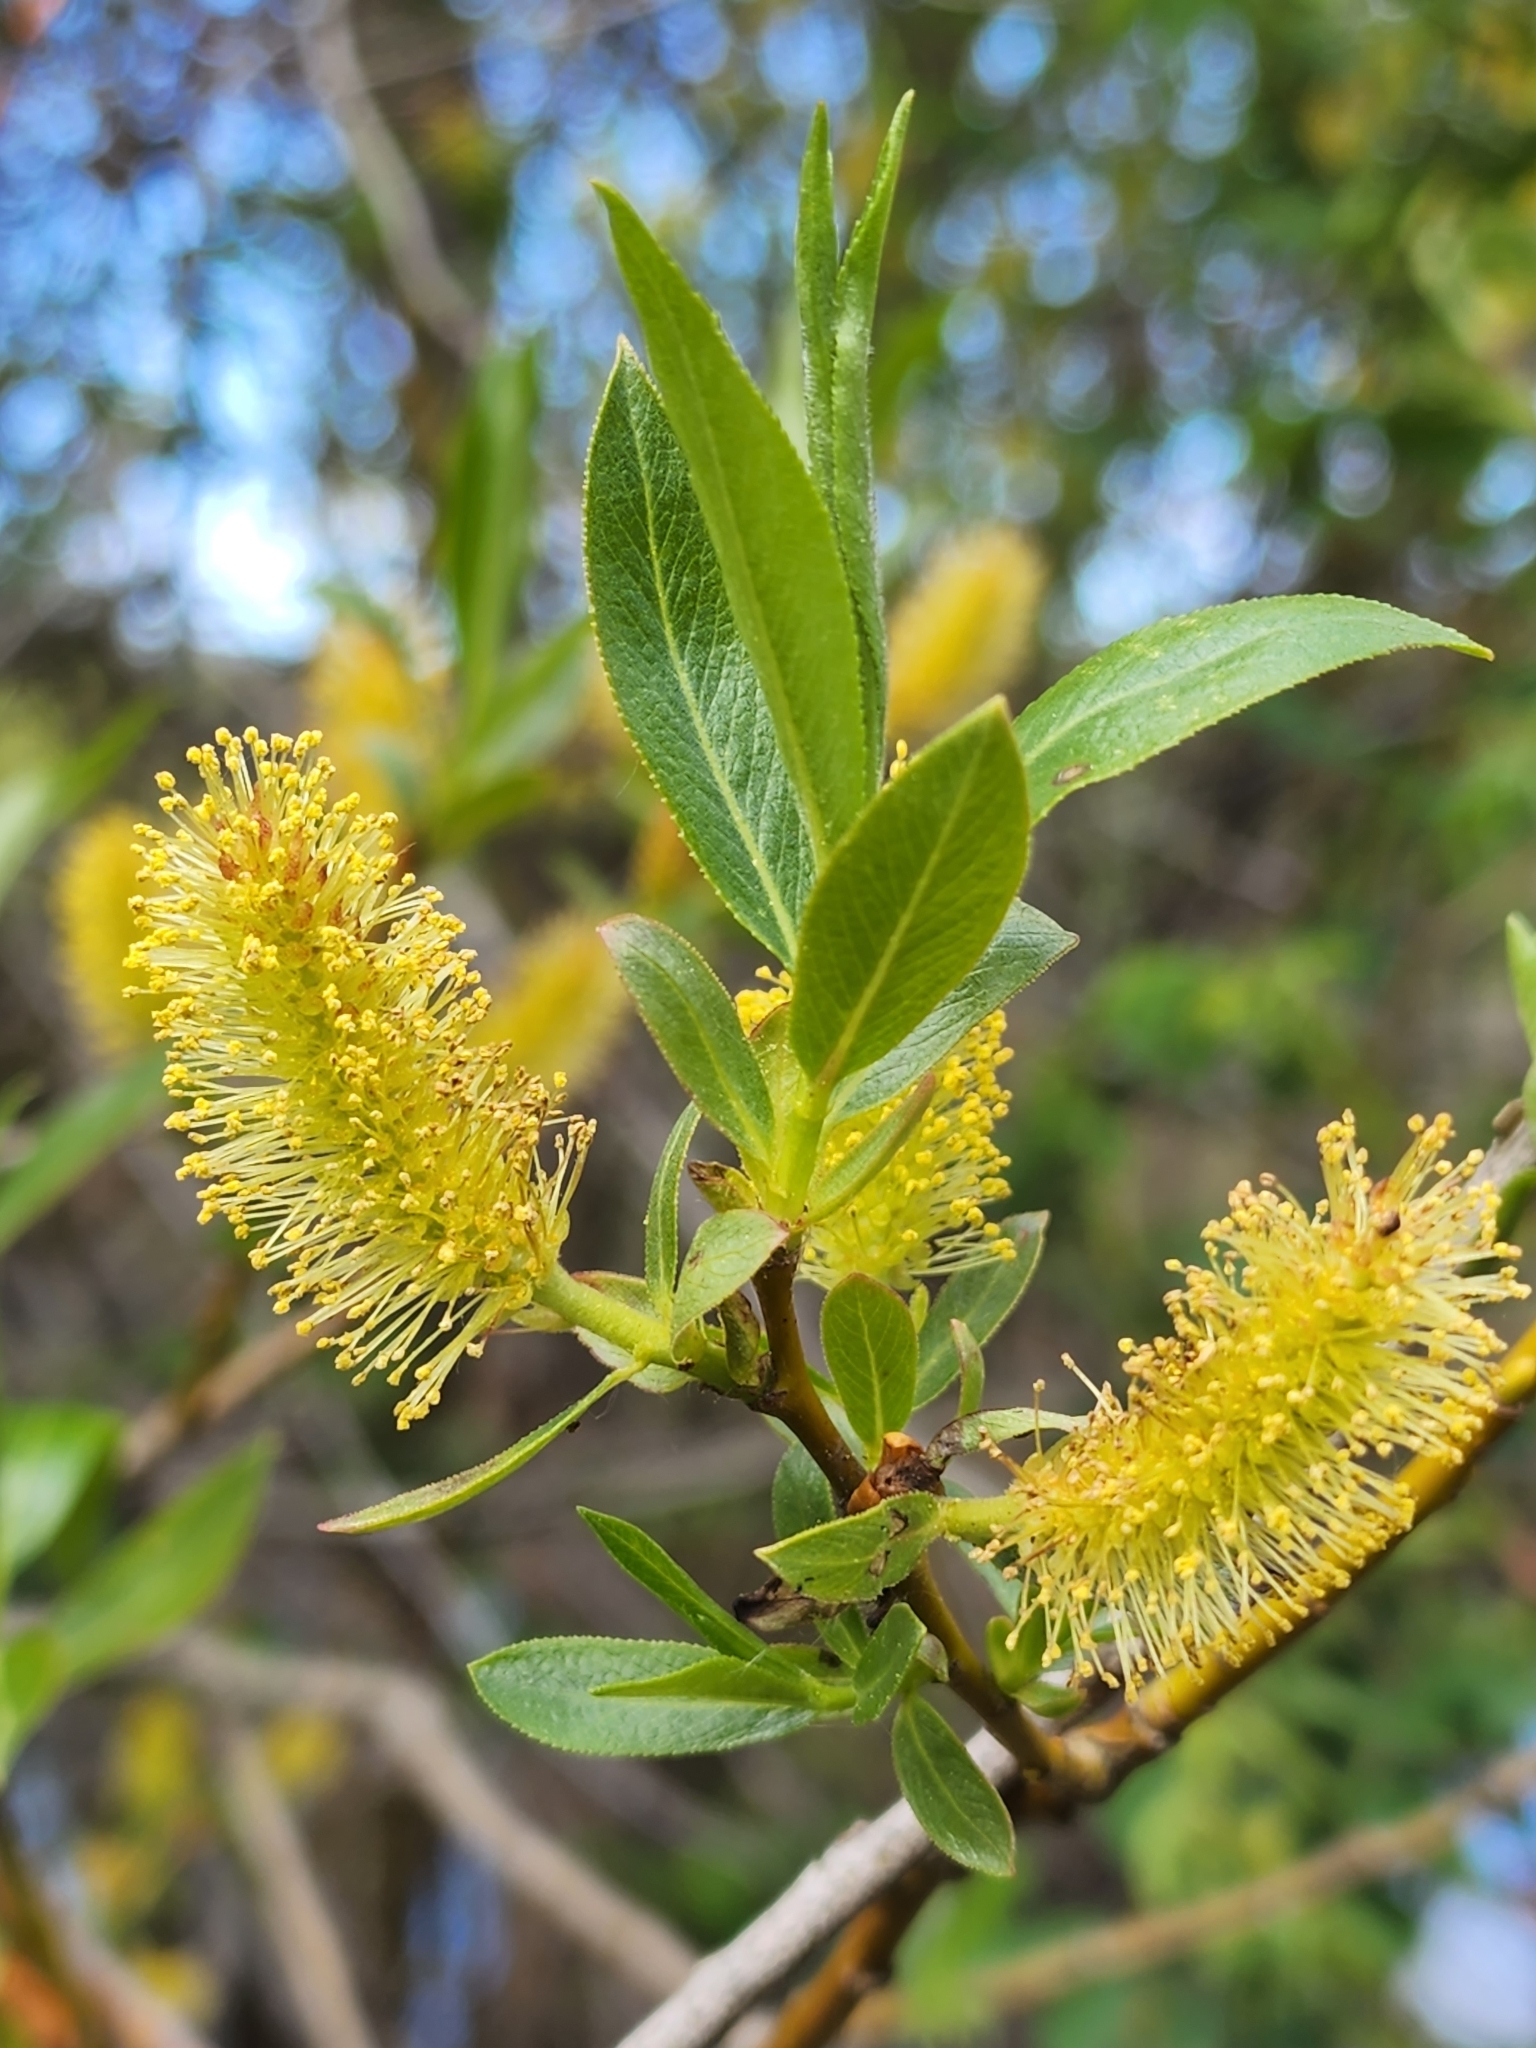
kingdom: Plantae
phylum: Tracheophyta
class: Magnoliopsida
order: Malpighiales
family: Salicaceae
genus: Salix
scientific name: Salix lucida
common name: Shining willow
